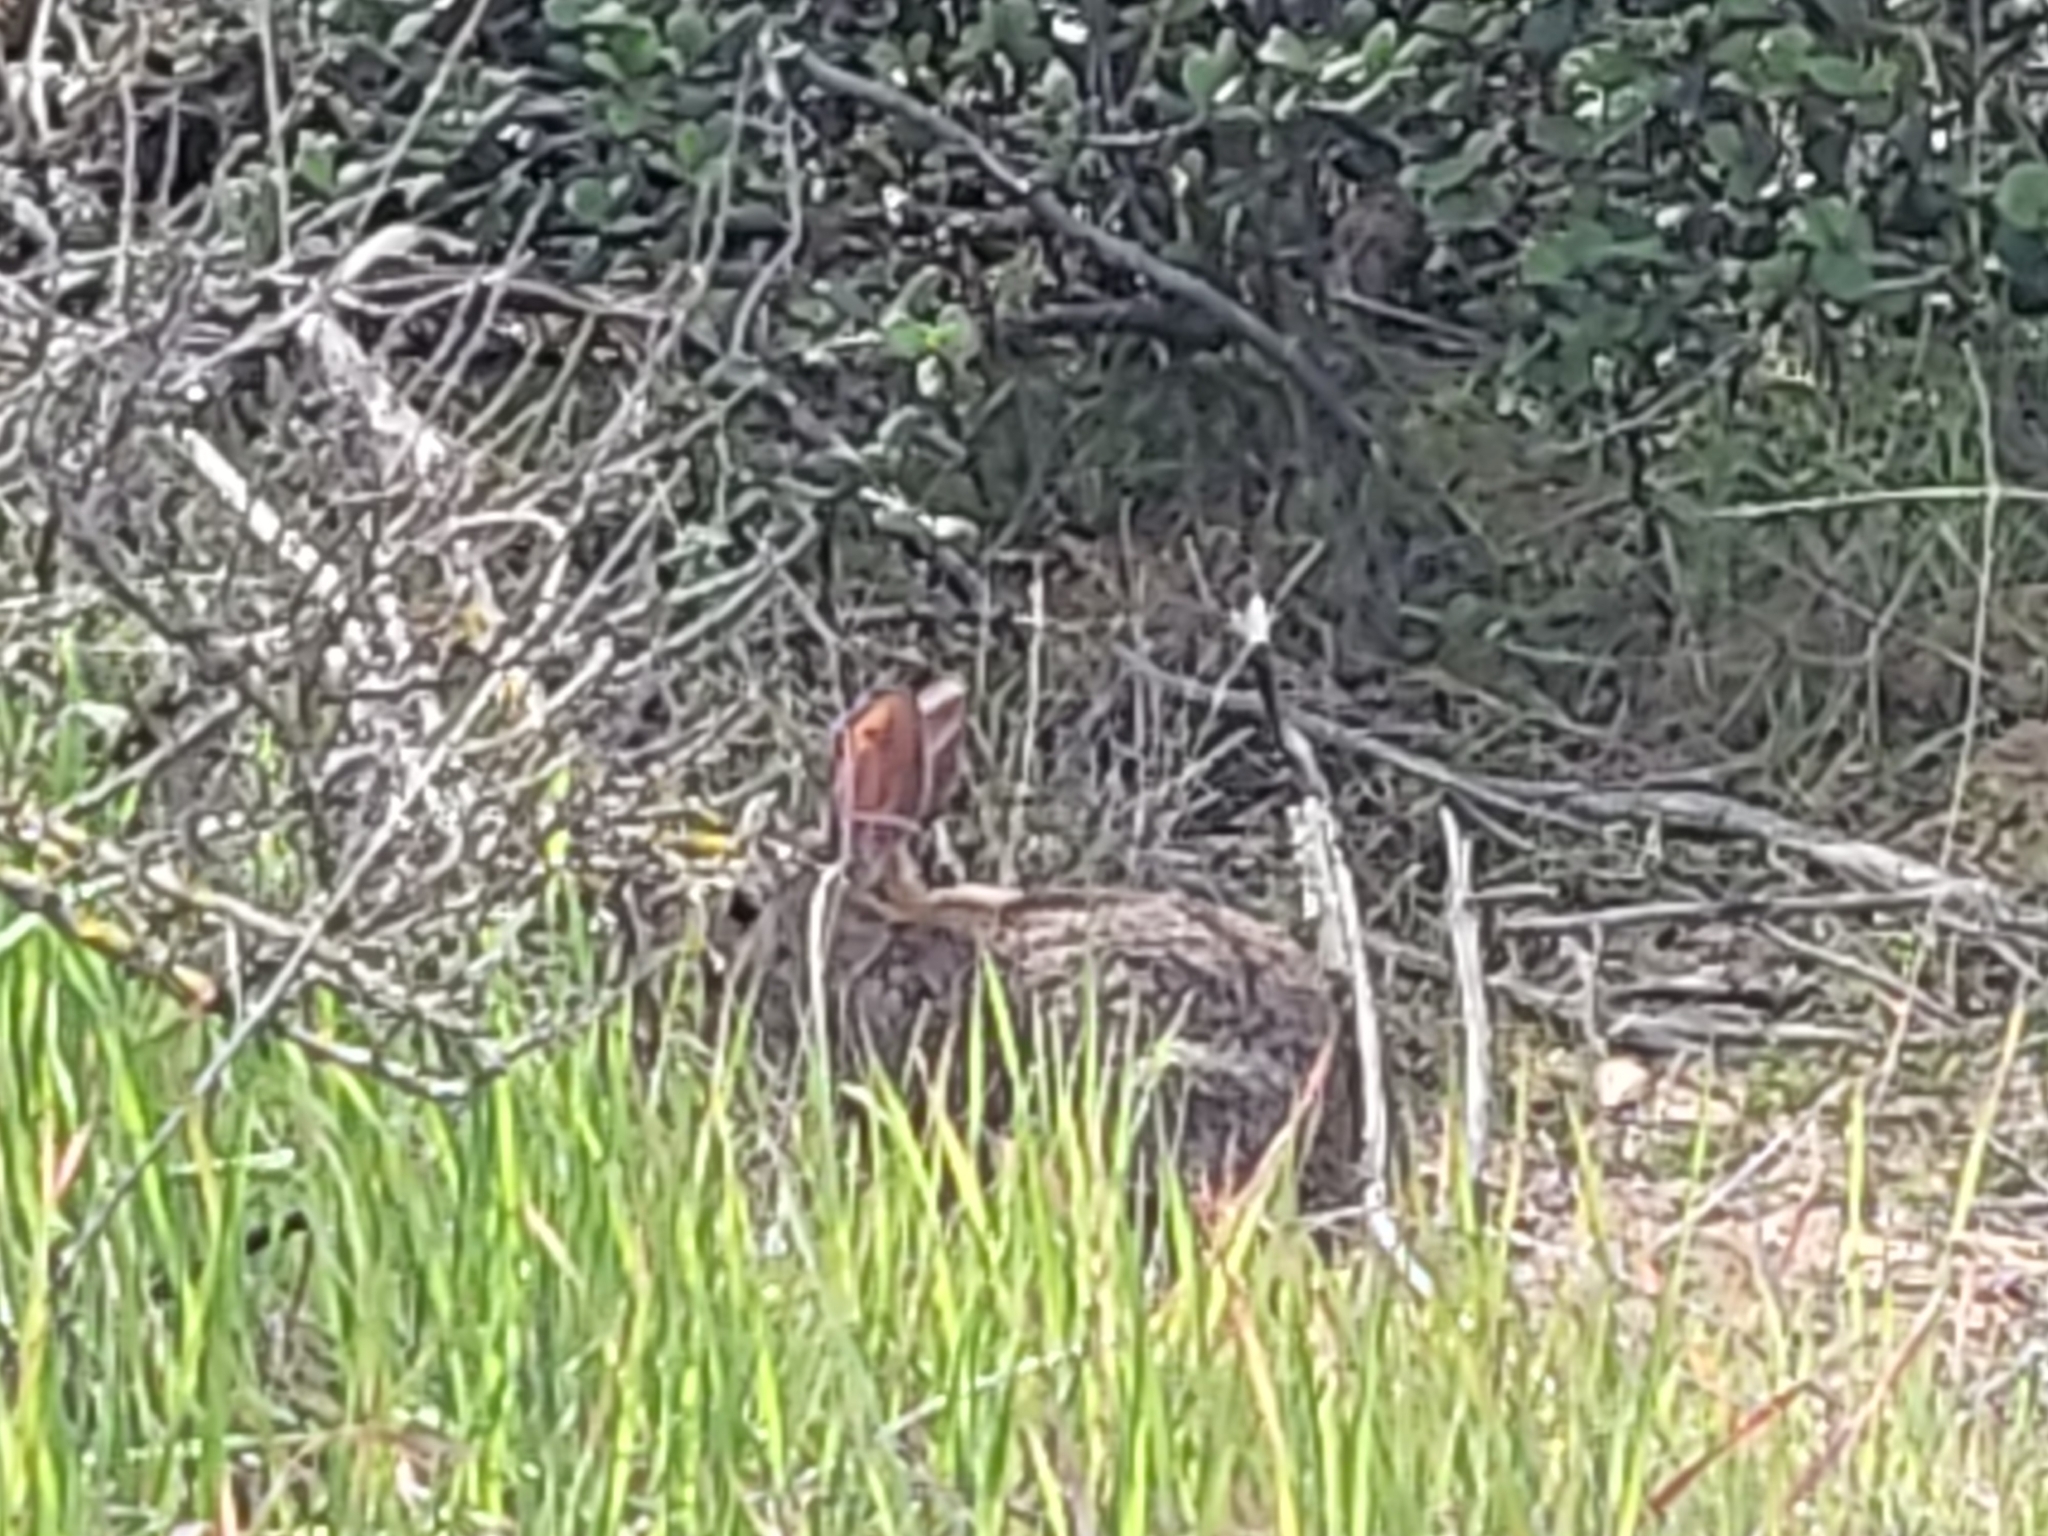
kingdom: Animalia
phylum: Chordata
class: Mammalia
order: Lagomorpha
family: Leporidae
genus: Sylvilagus
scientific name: Sylvilagus bachmani
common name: Brush rabbit
